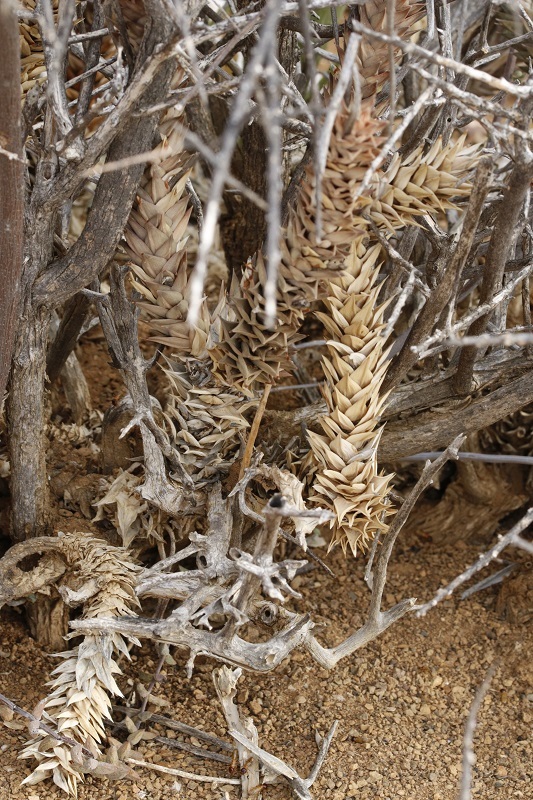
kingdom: Plantae
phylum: Tracheophyta
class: Liliopsida
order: Asparagales
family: Asphodelaceae
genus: Astroloba
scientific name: Astroloba herrei
